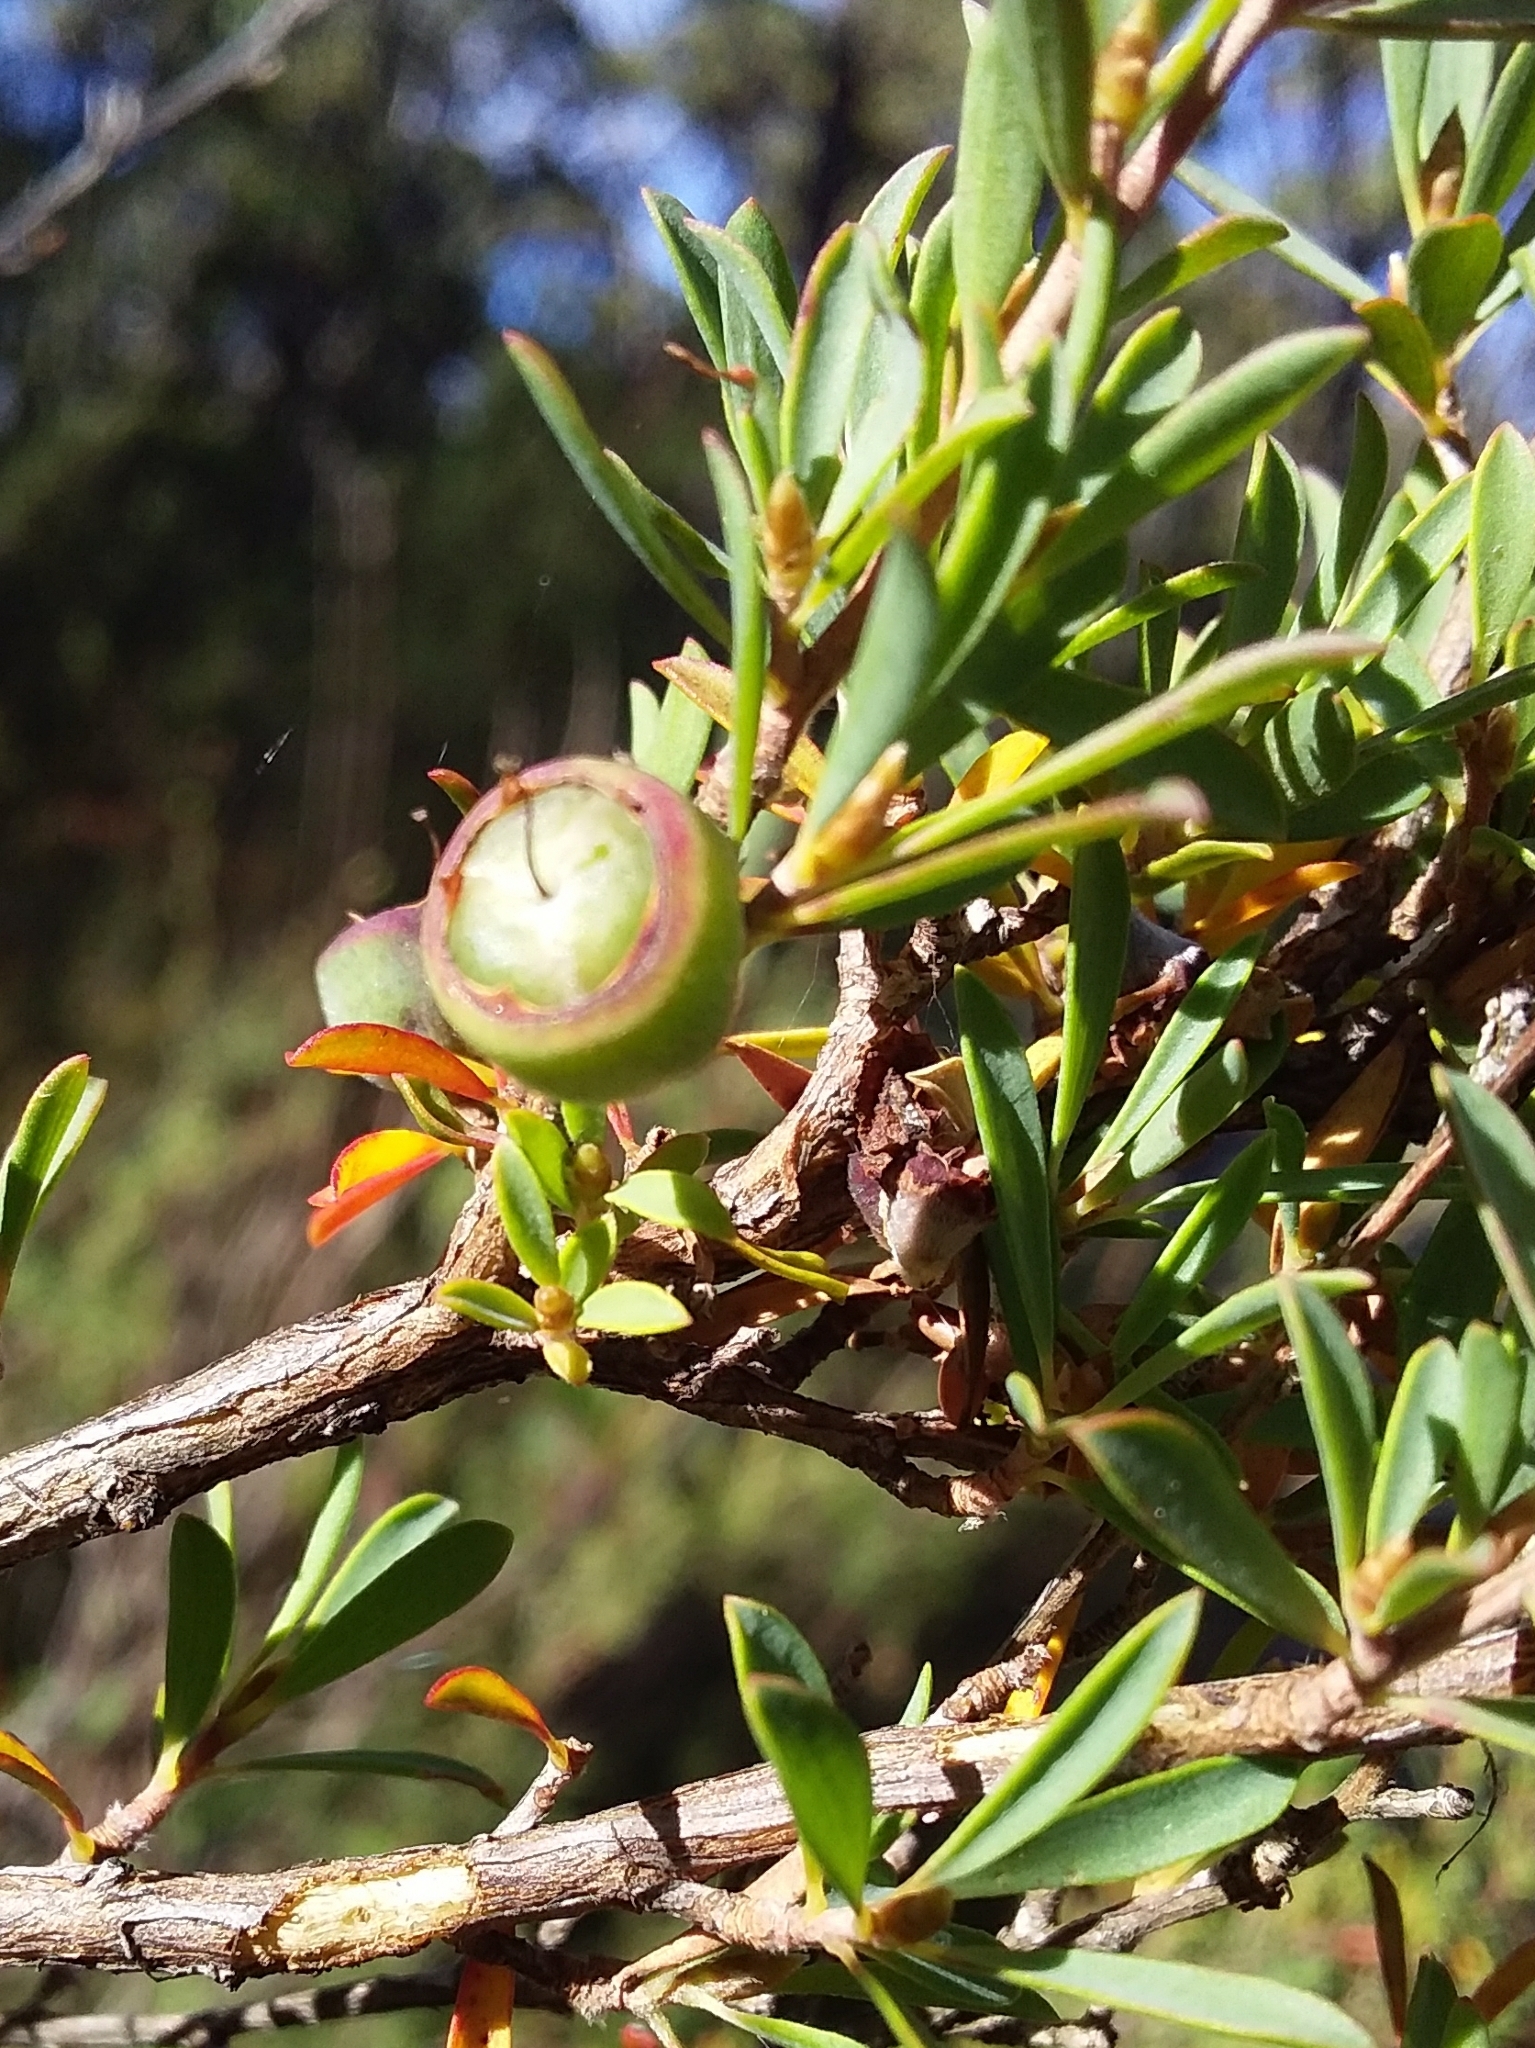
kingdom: Plantae
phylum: Tracheophyta
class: Magnoliopsida
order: Myrtales
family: Myrtaceae
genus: Leptospermum
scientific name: Leptospermum myrsinoides
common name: Heath teatree
